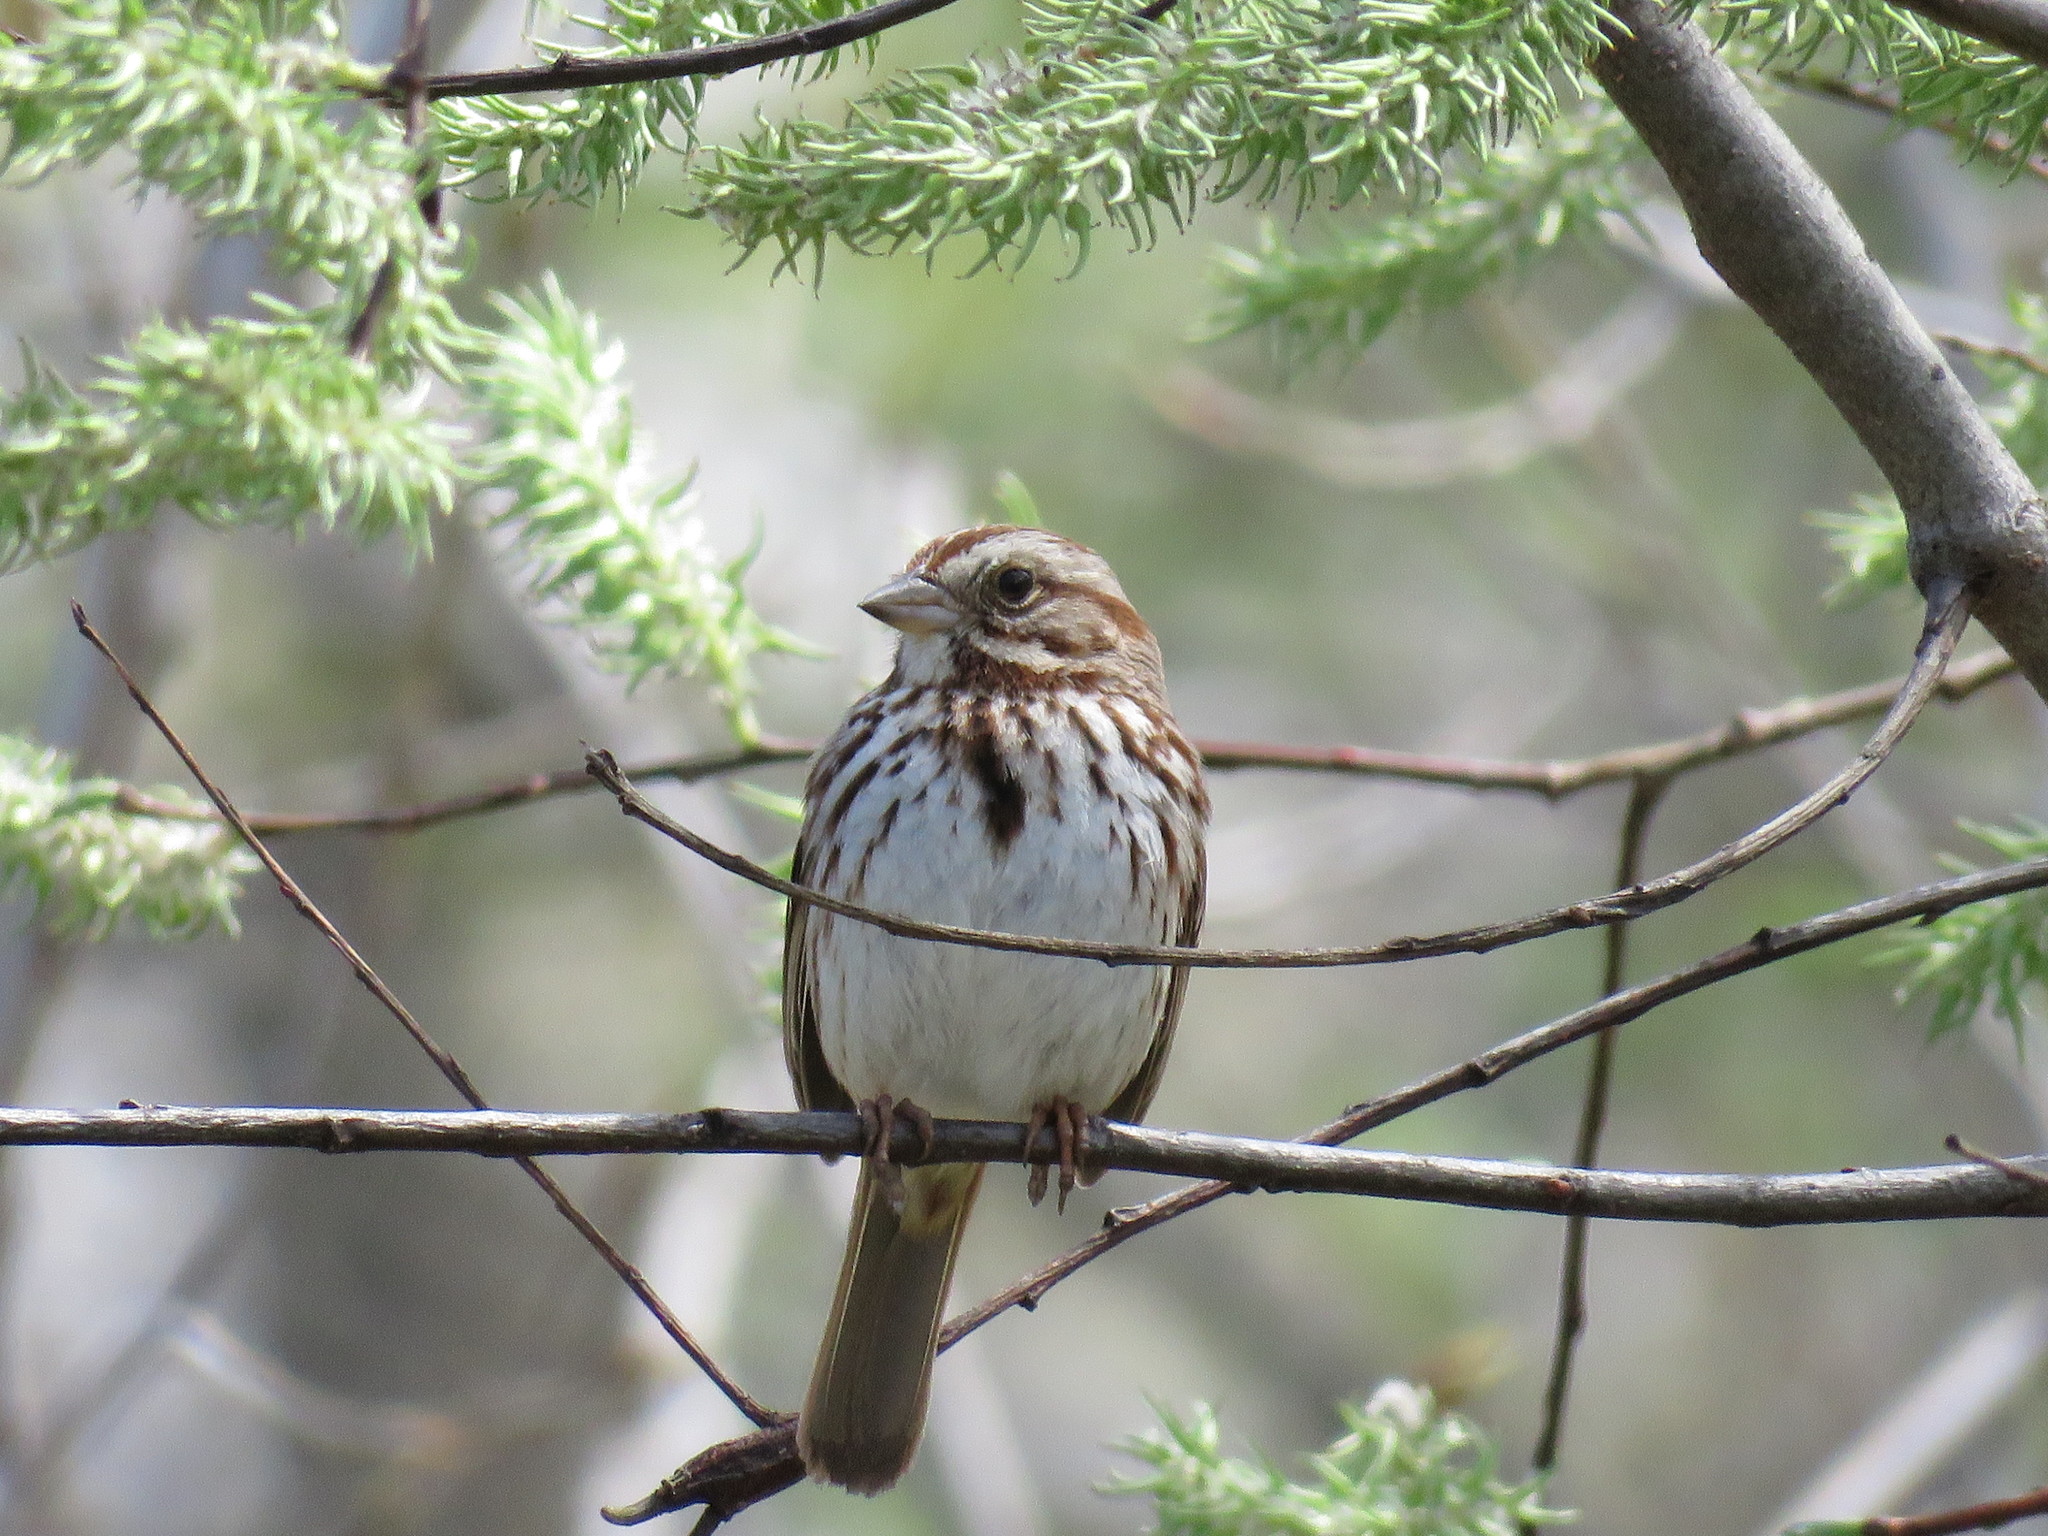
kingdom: Animalia
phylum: Chordata
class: Aves
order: Passeriformes
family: Passerellidae
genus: Melospiza
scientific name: Melospiza melodia
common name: Song sparrow
